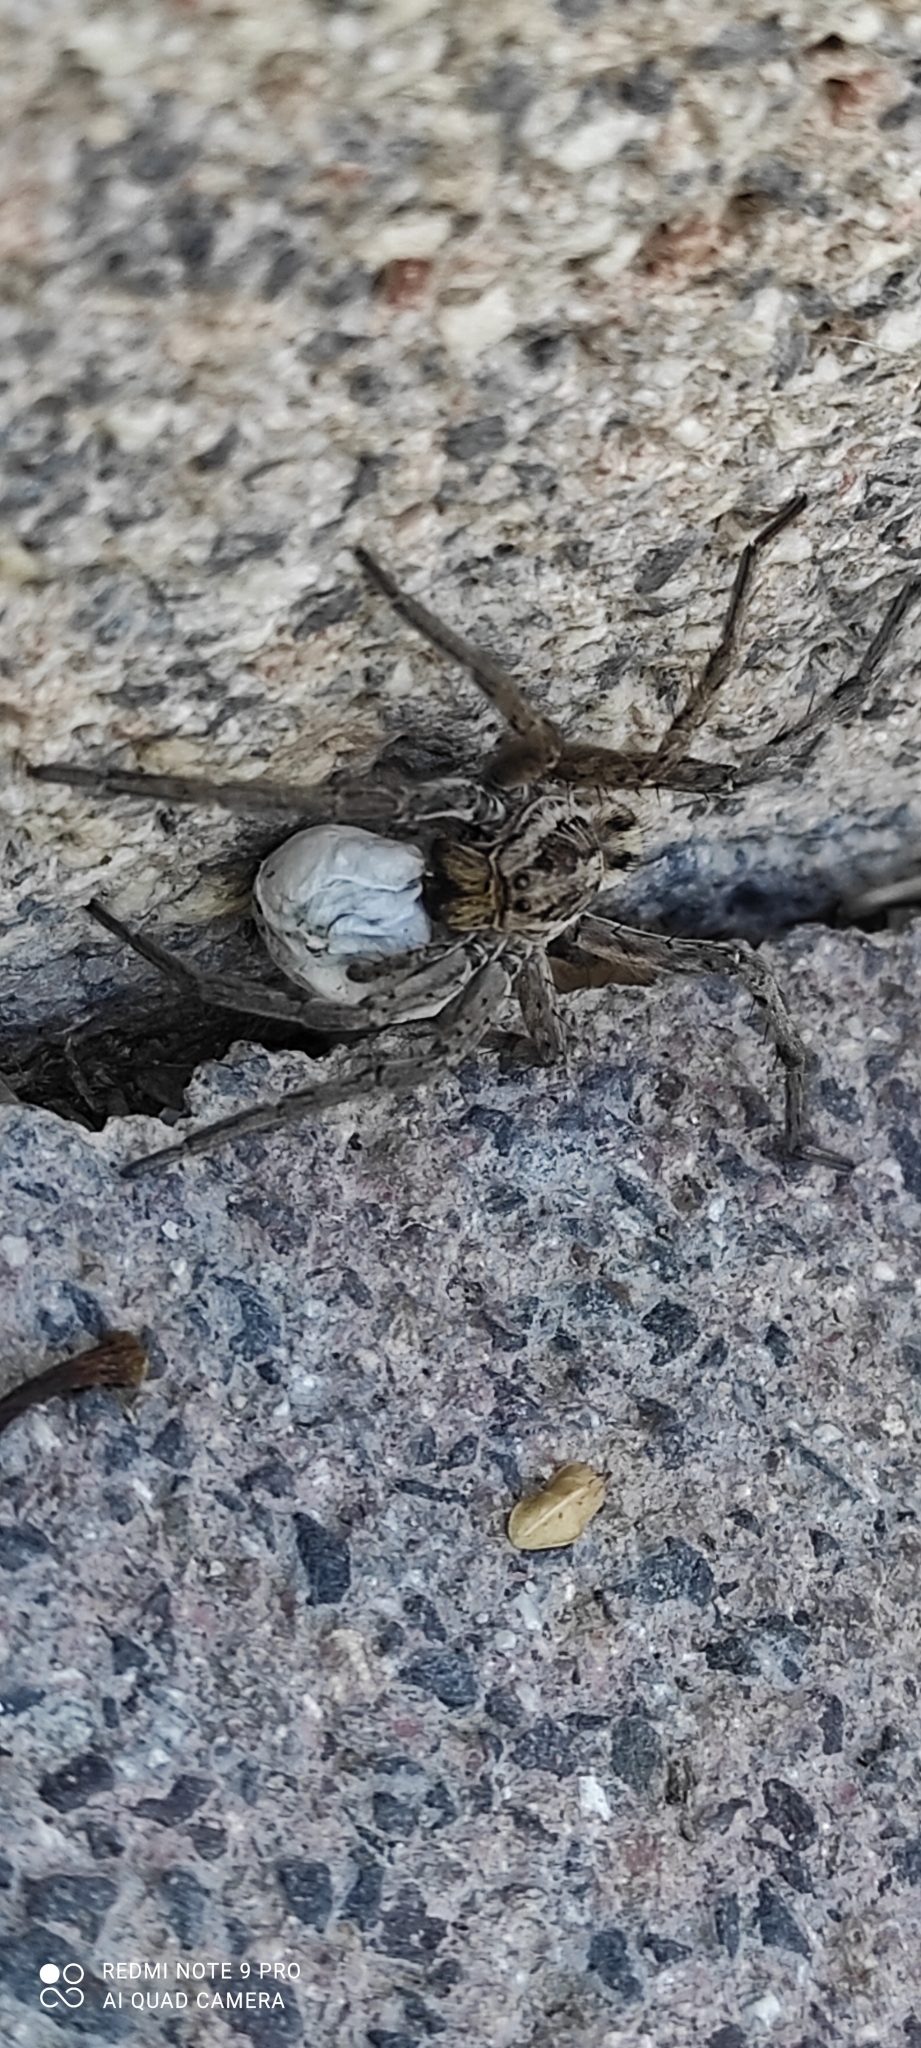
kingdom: Animalia
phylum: Arthropoda
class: Arachnida
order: Araneae
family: Lycosidae
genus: Hogna
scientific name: Hogna radiata
